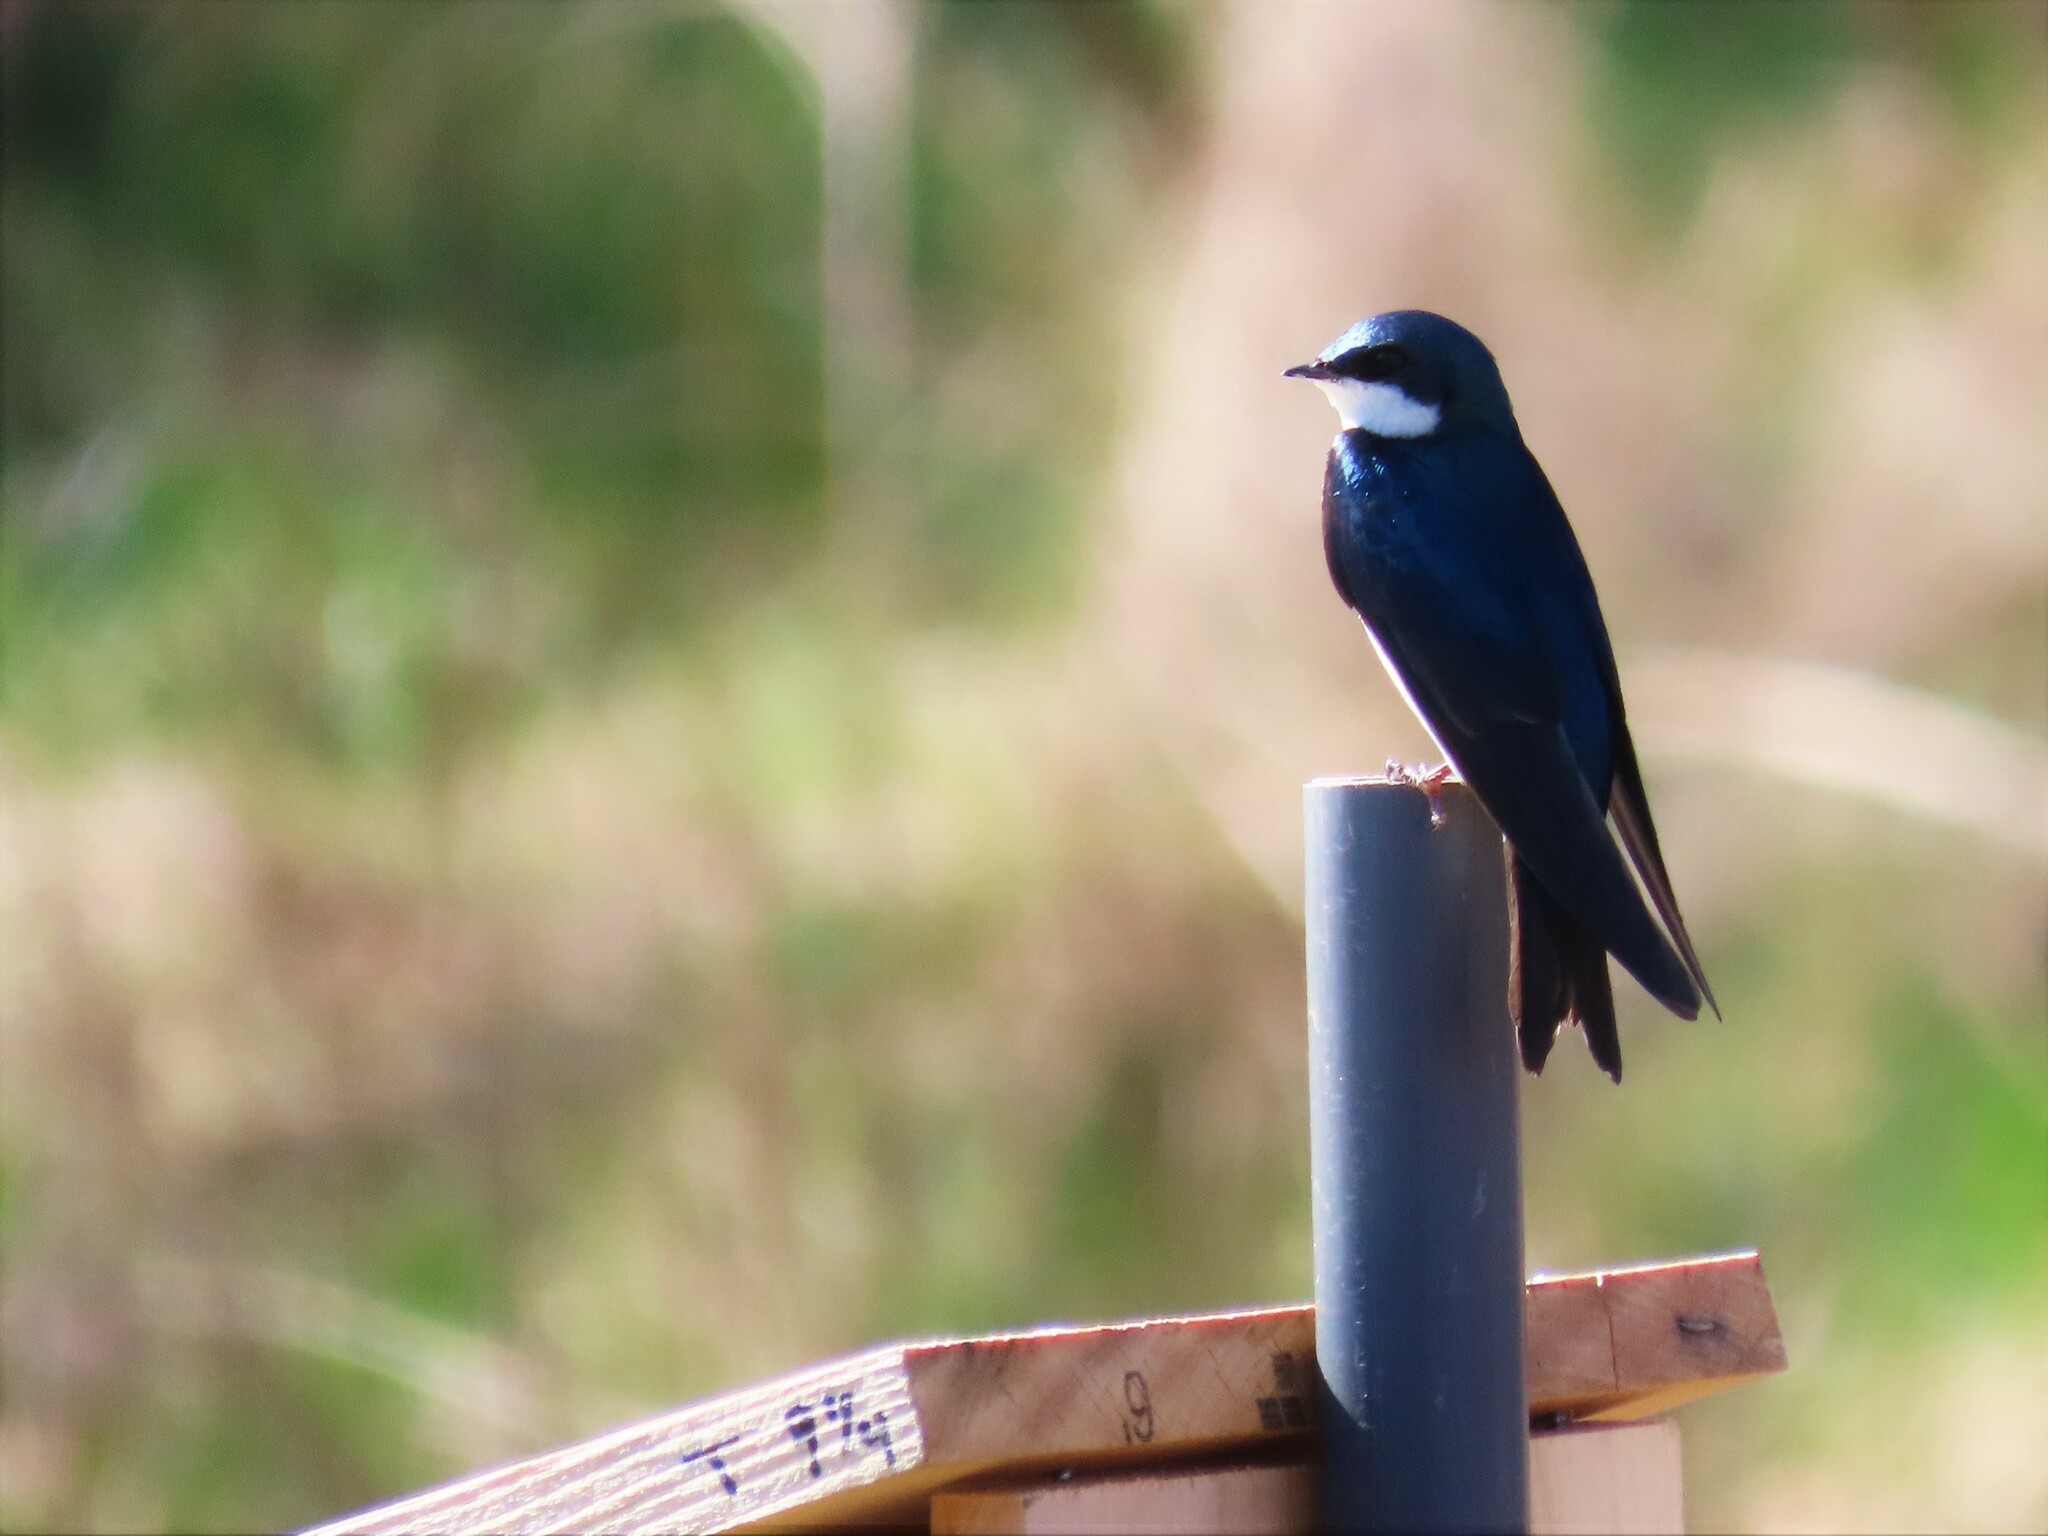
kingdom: Animalia
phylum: Chordata
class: Aves
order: Passeriformes
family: Hirundinidae
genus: Tachycineta
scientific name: Tachycineta bicolor
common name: Tree swallow
